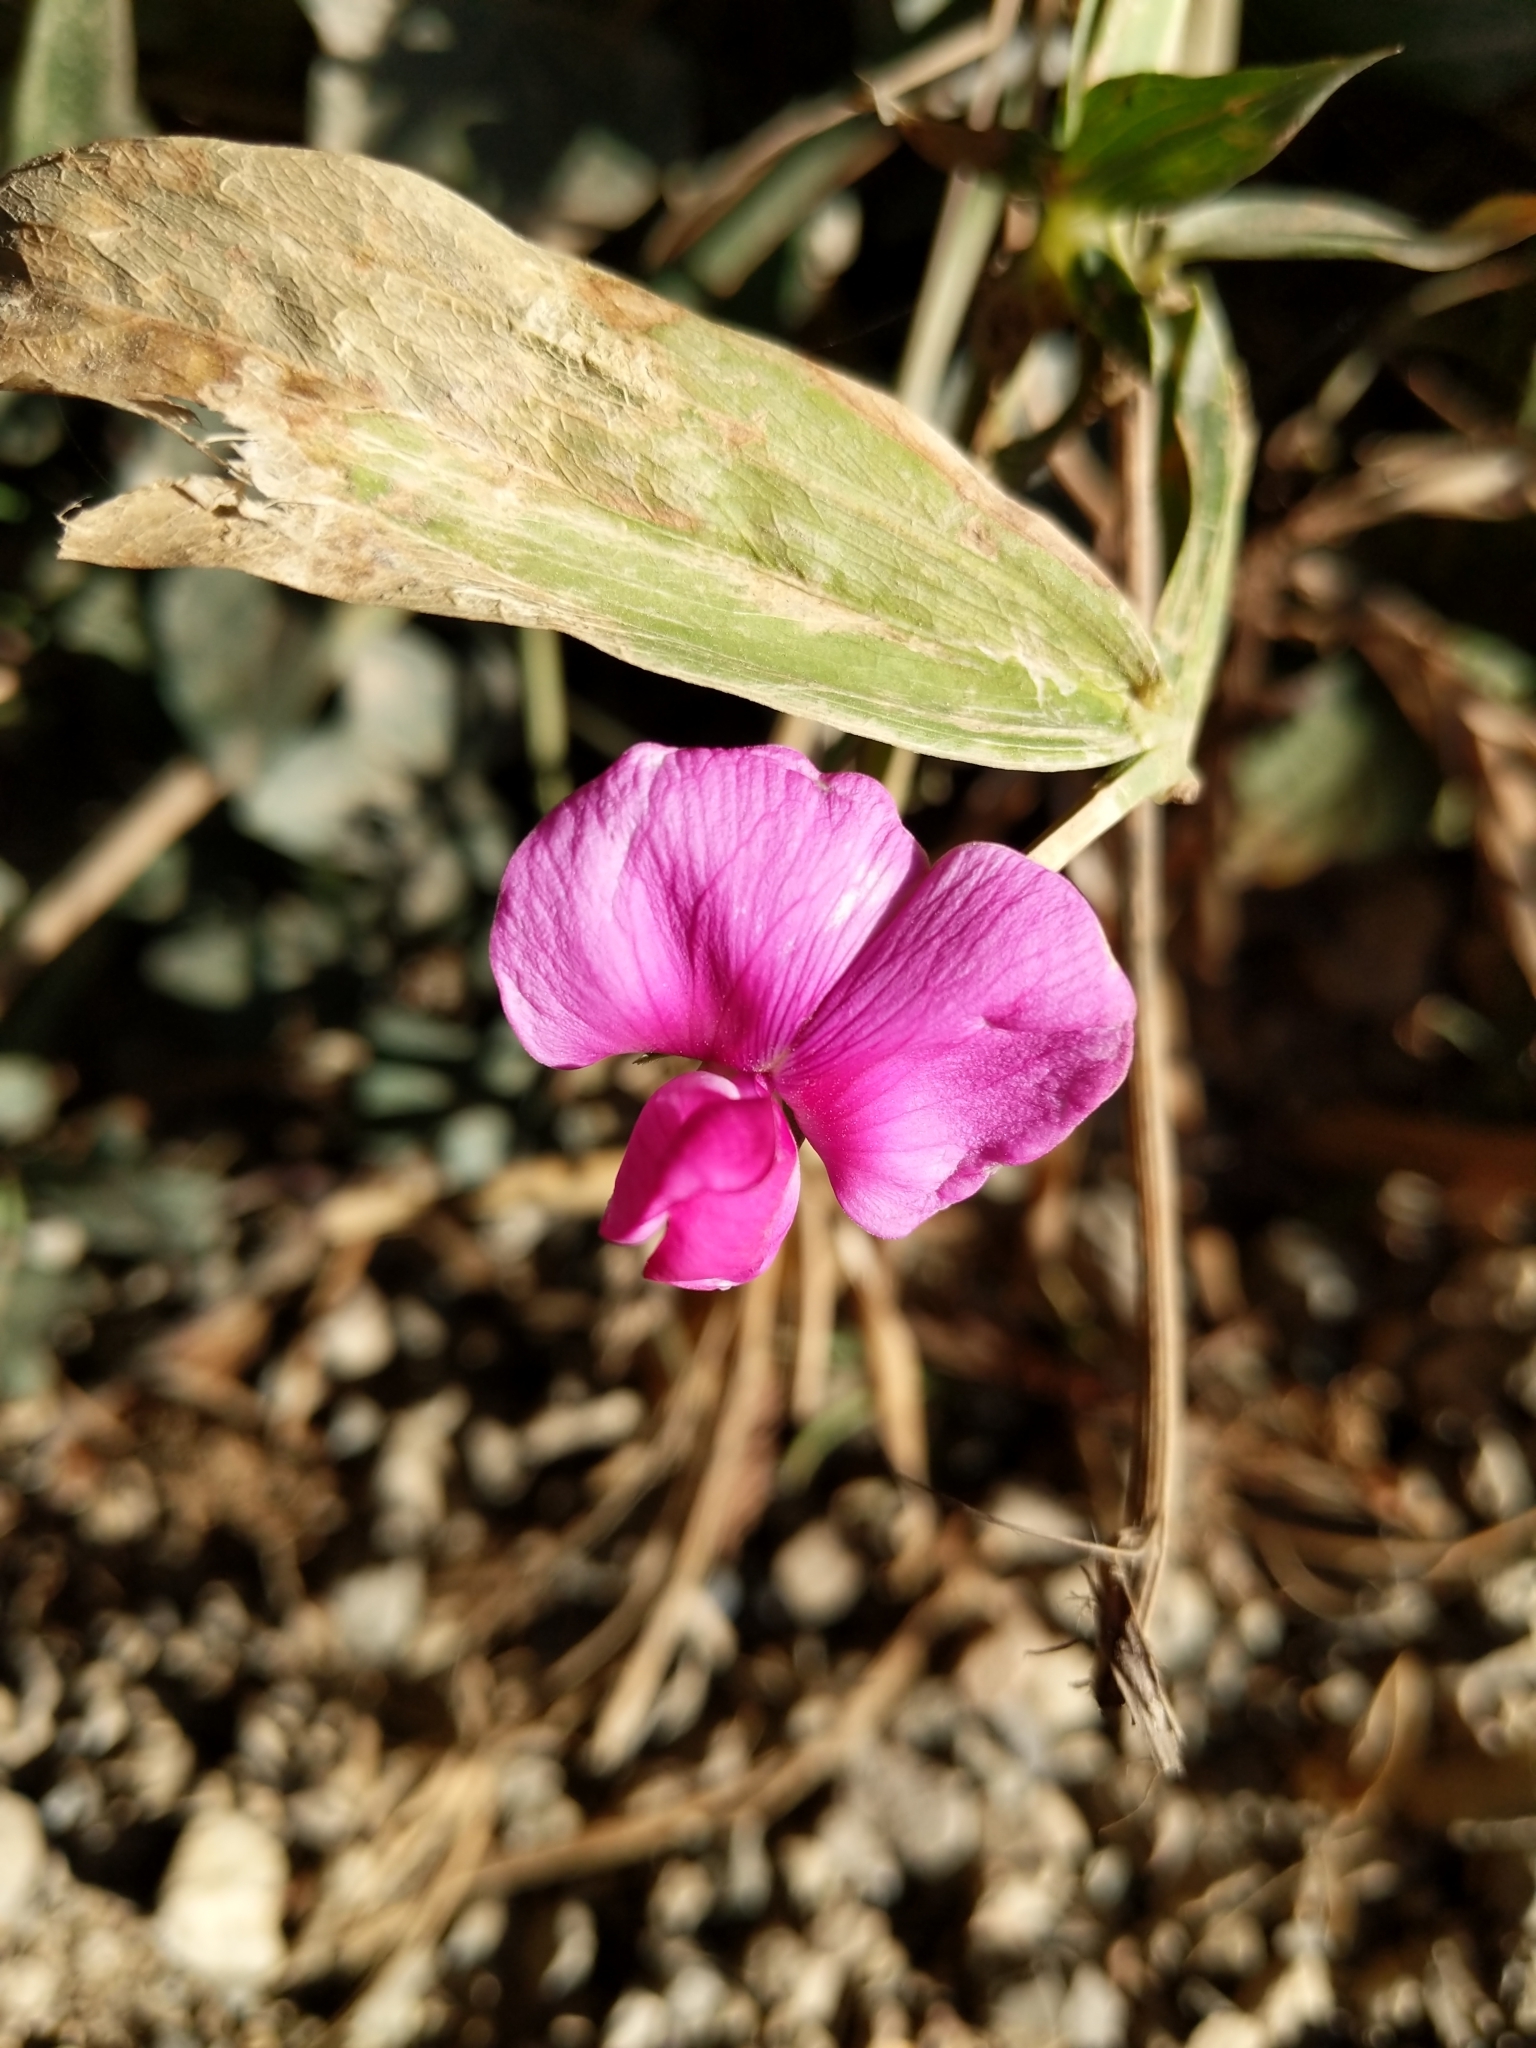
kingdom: Plantae
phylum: Tracheophyta
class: Magnoliopsida
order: Fabales
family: Fabaceae
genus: Lathyrus
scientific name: Lathyrus latifolius
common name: Perennial pea
